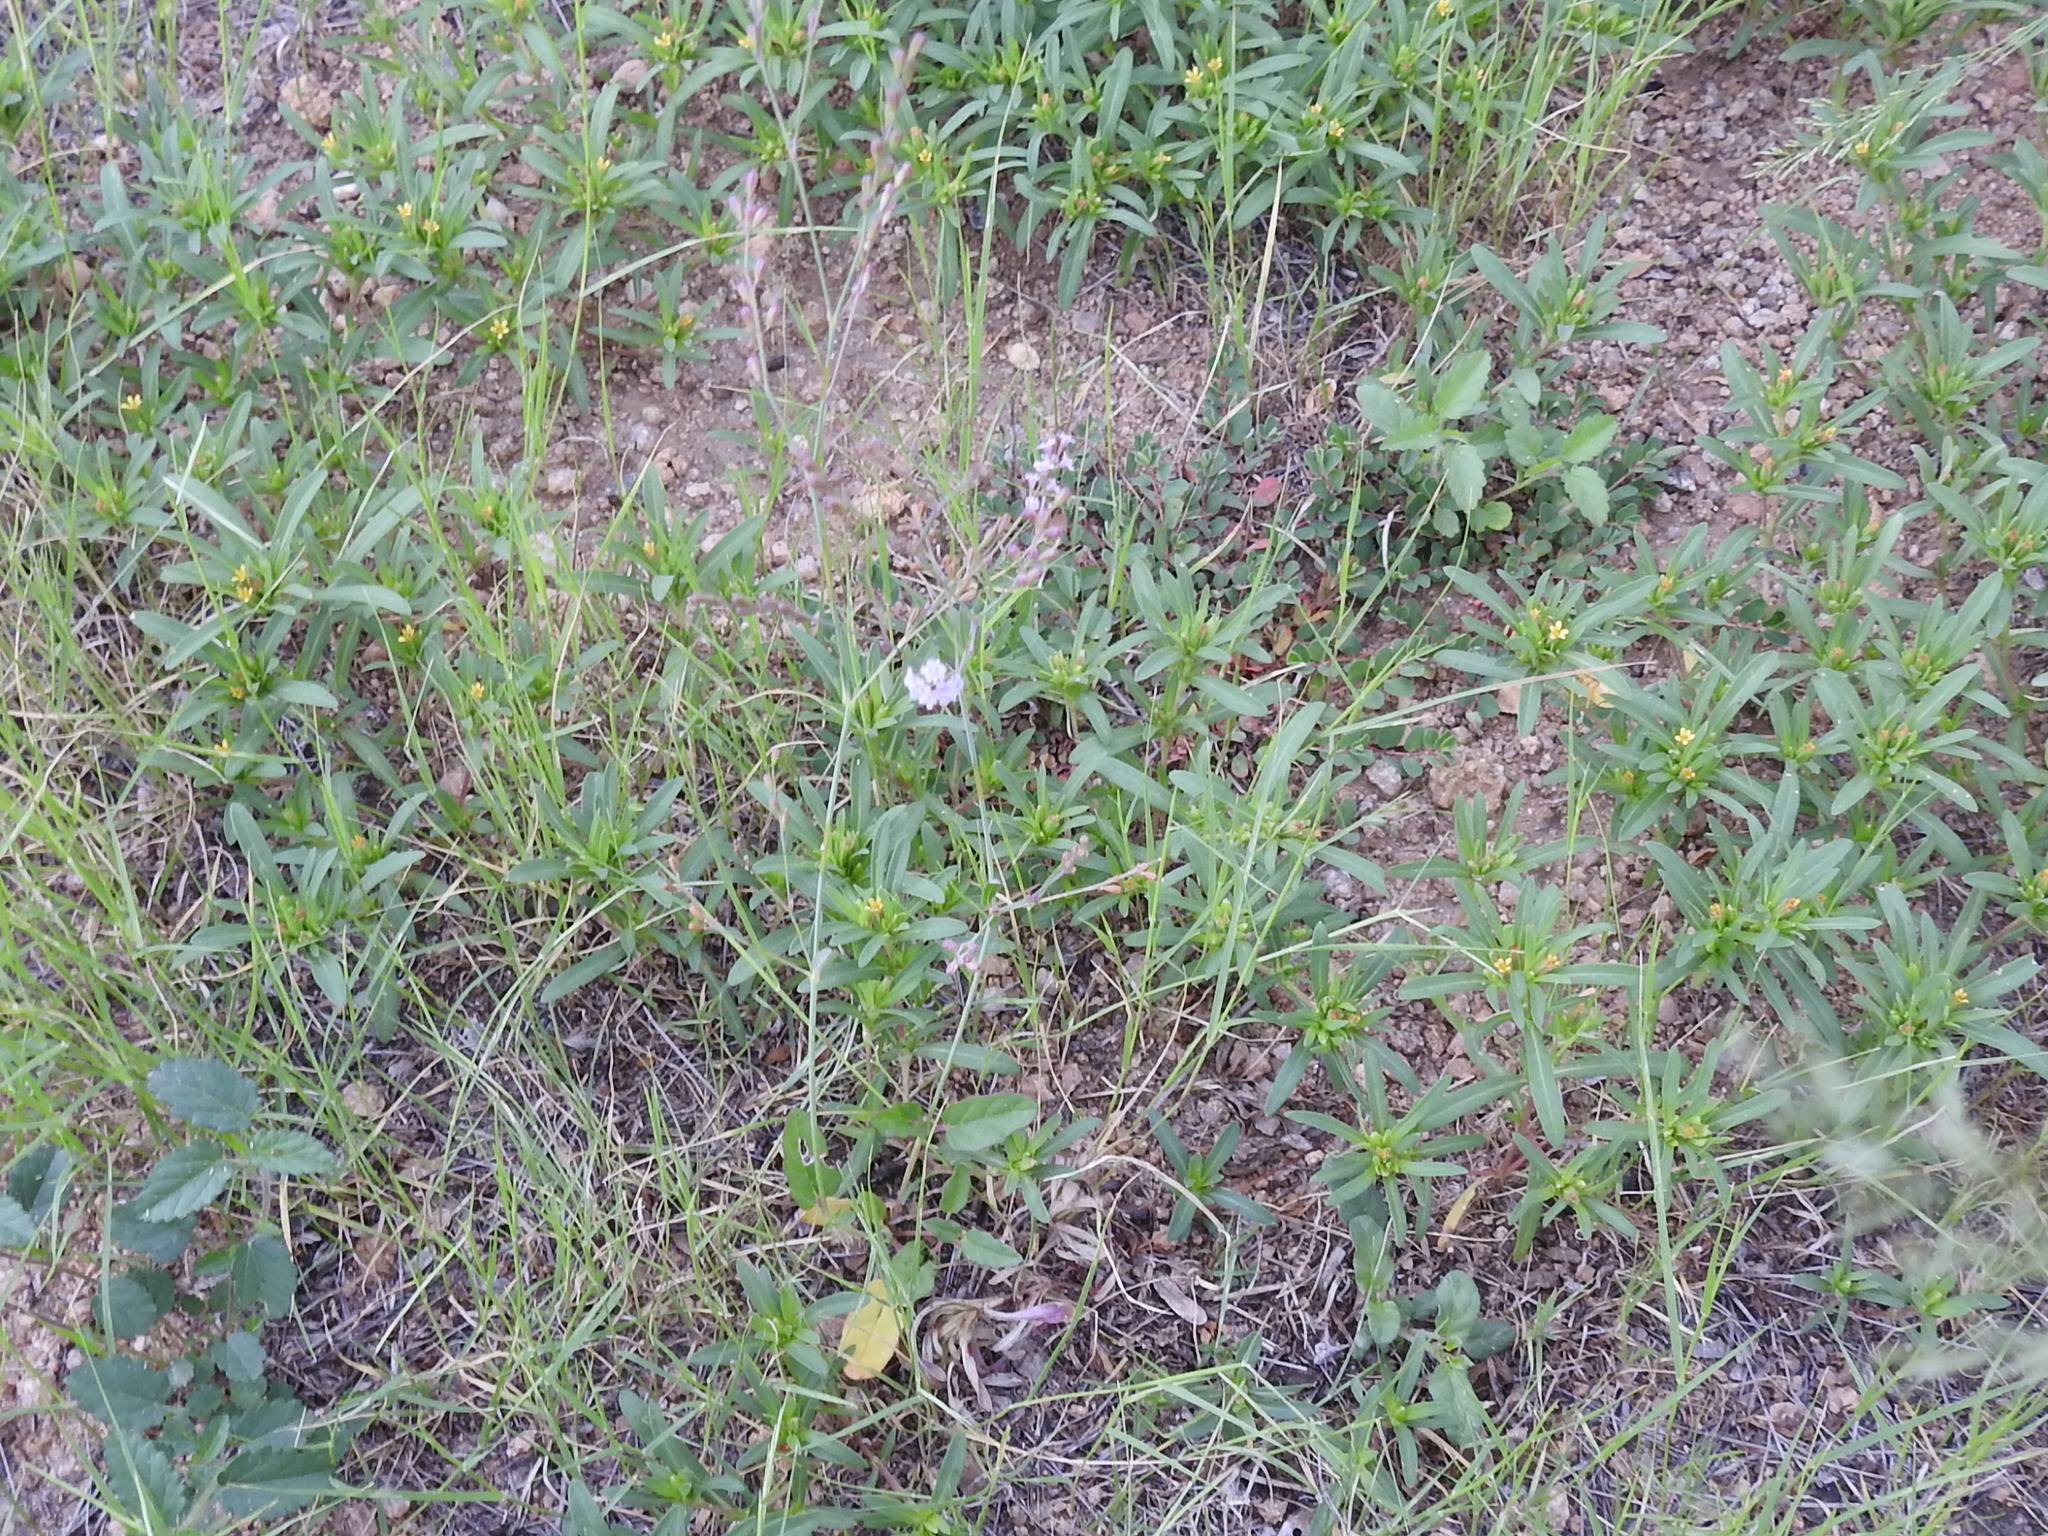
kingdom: Plantae
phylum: Tracheophyta
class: Magnoliopsida
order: Caryophyllales
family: Nyctaginaceae
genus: Boerhavia
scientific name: Boerhavia spicata
